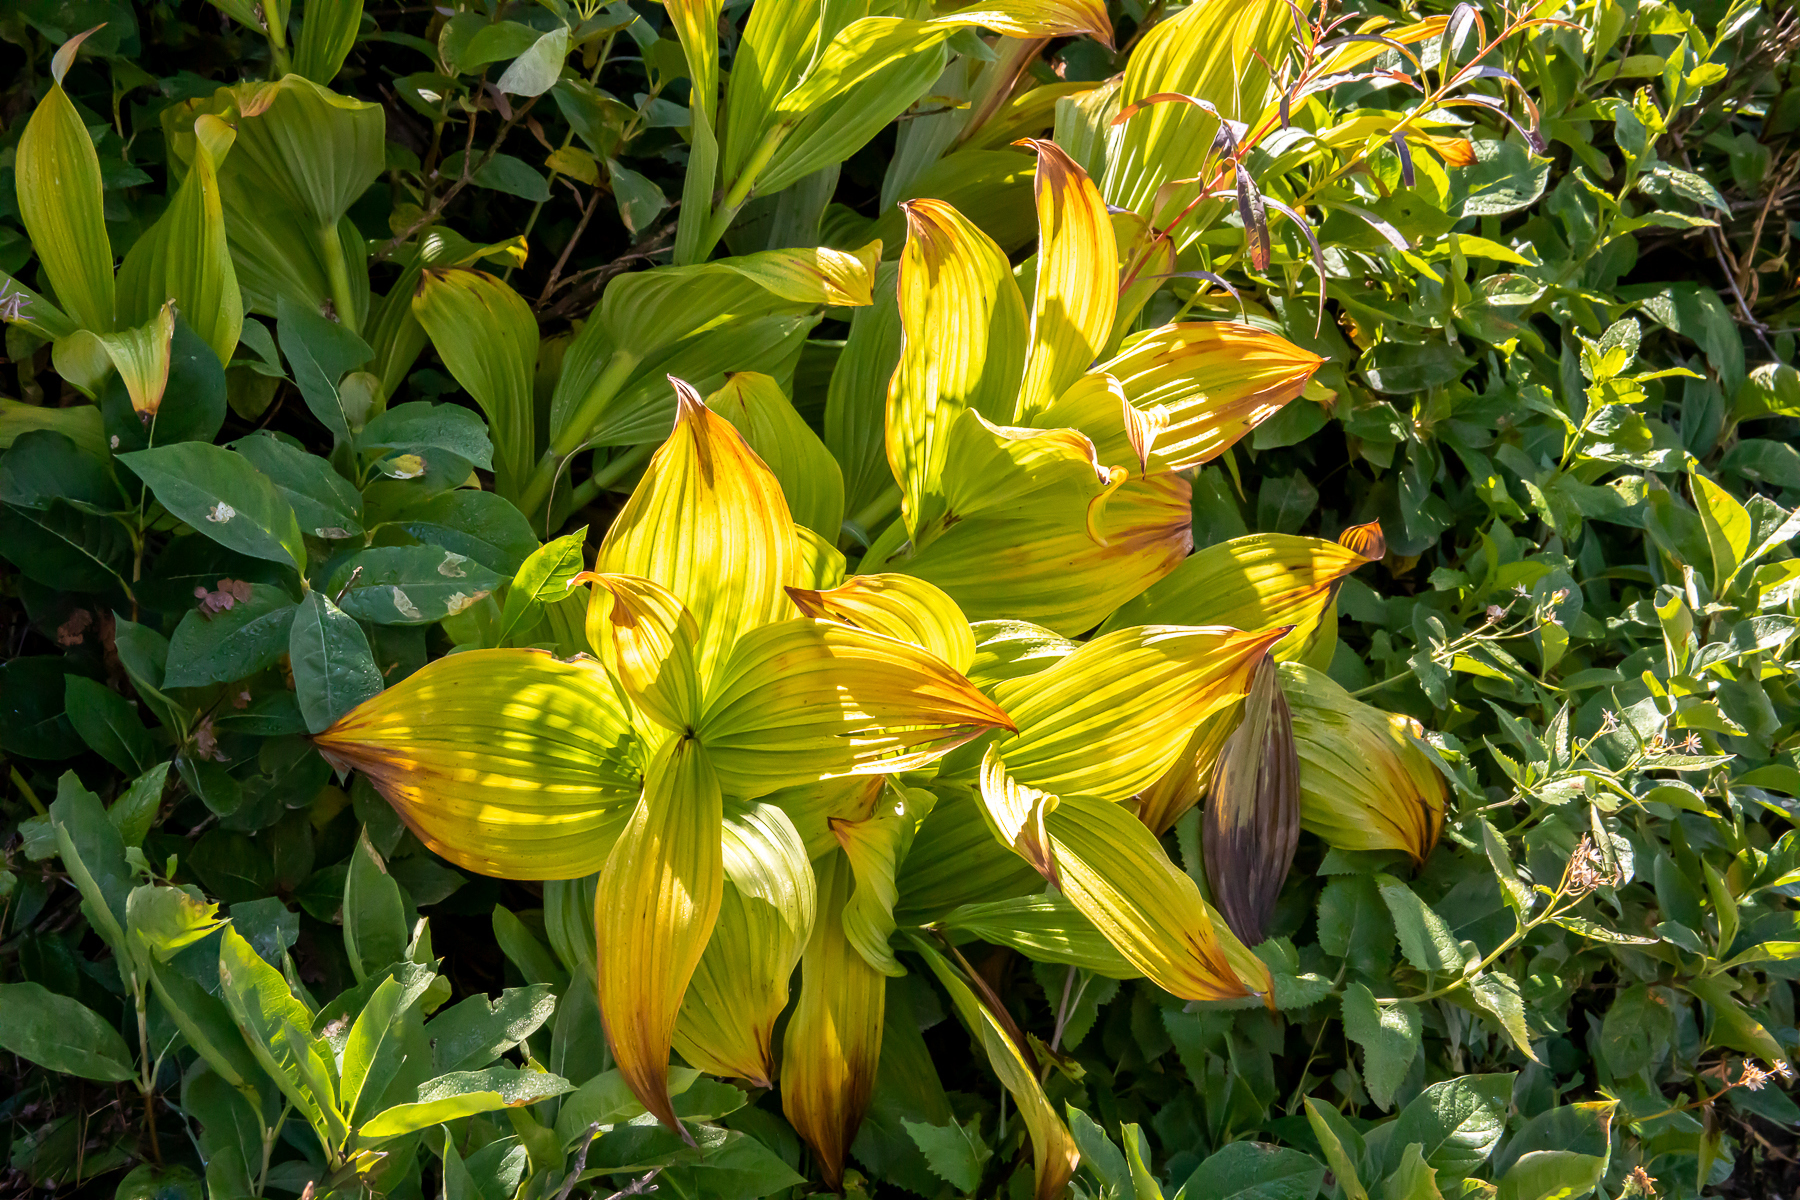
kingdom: Plantae
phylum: Tracheophyta
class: Liliopsida
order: Liliales
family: Melanthiaceae
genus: Veratrum
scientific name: Veratrum viride
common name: American false hellebore
